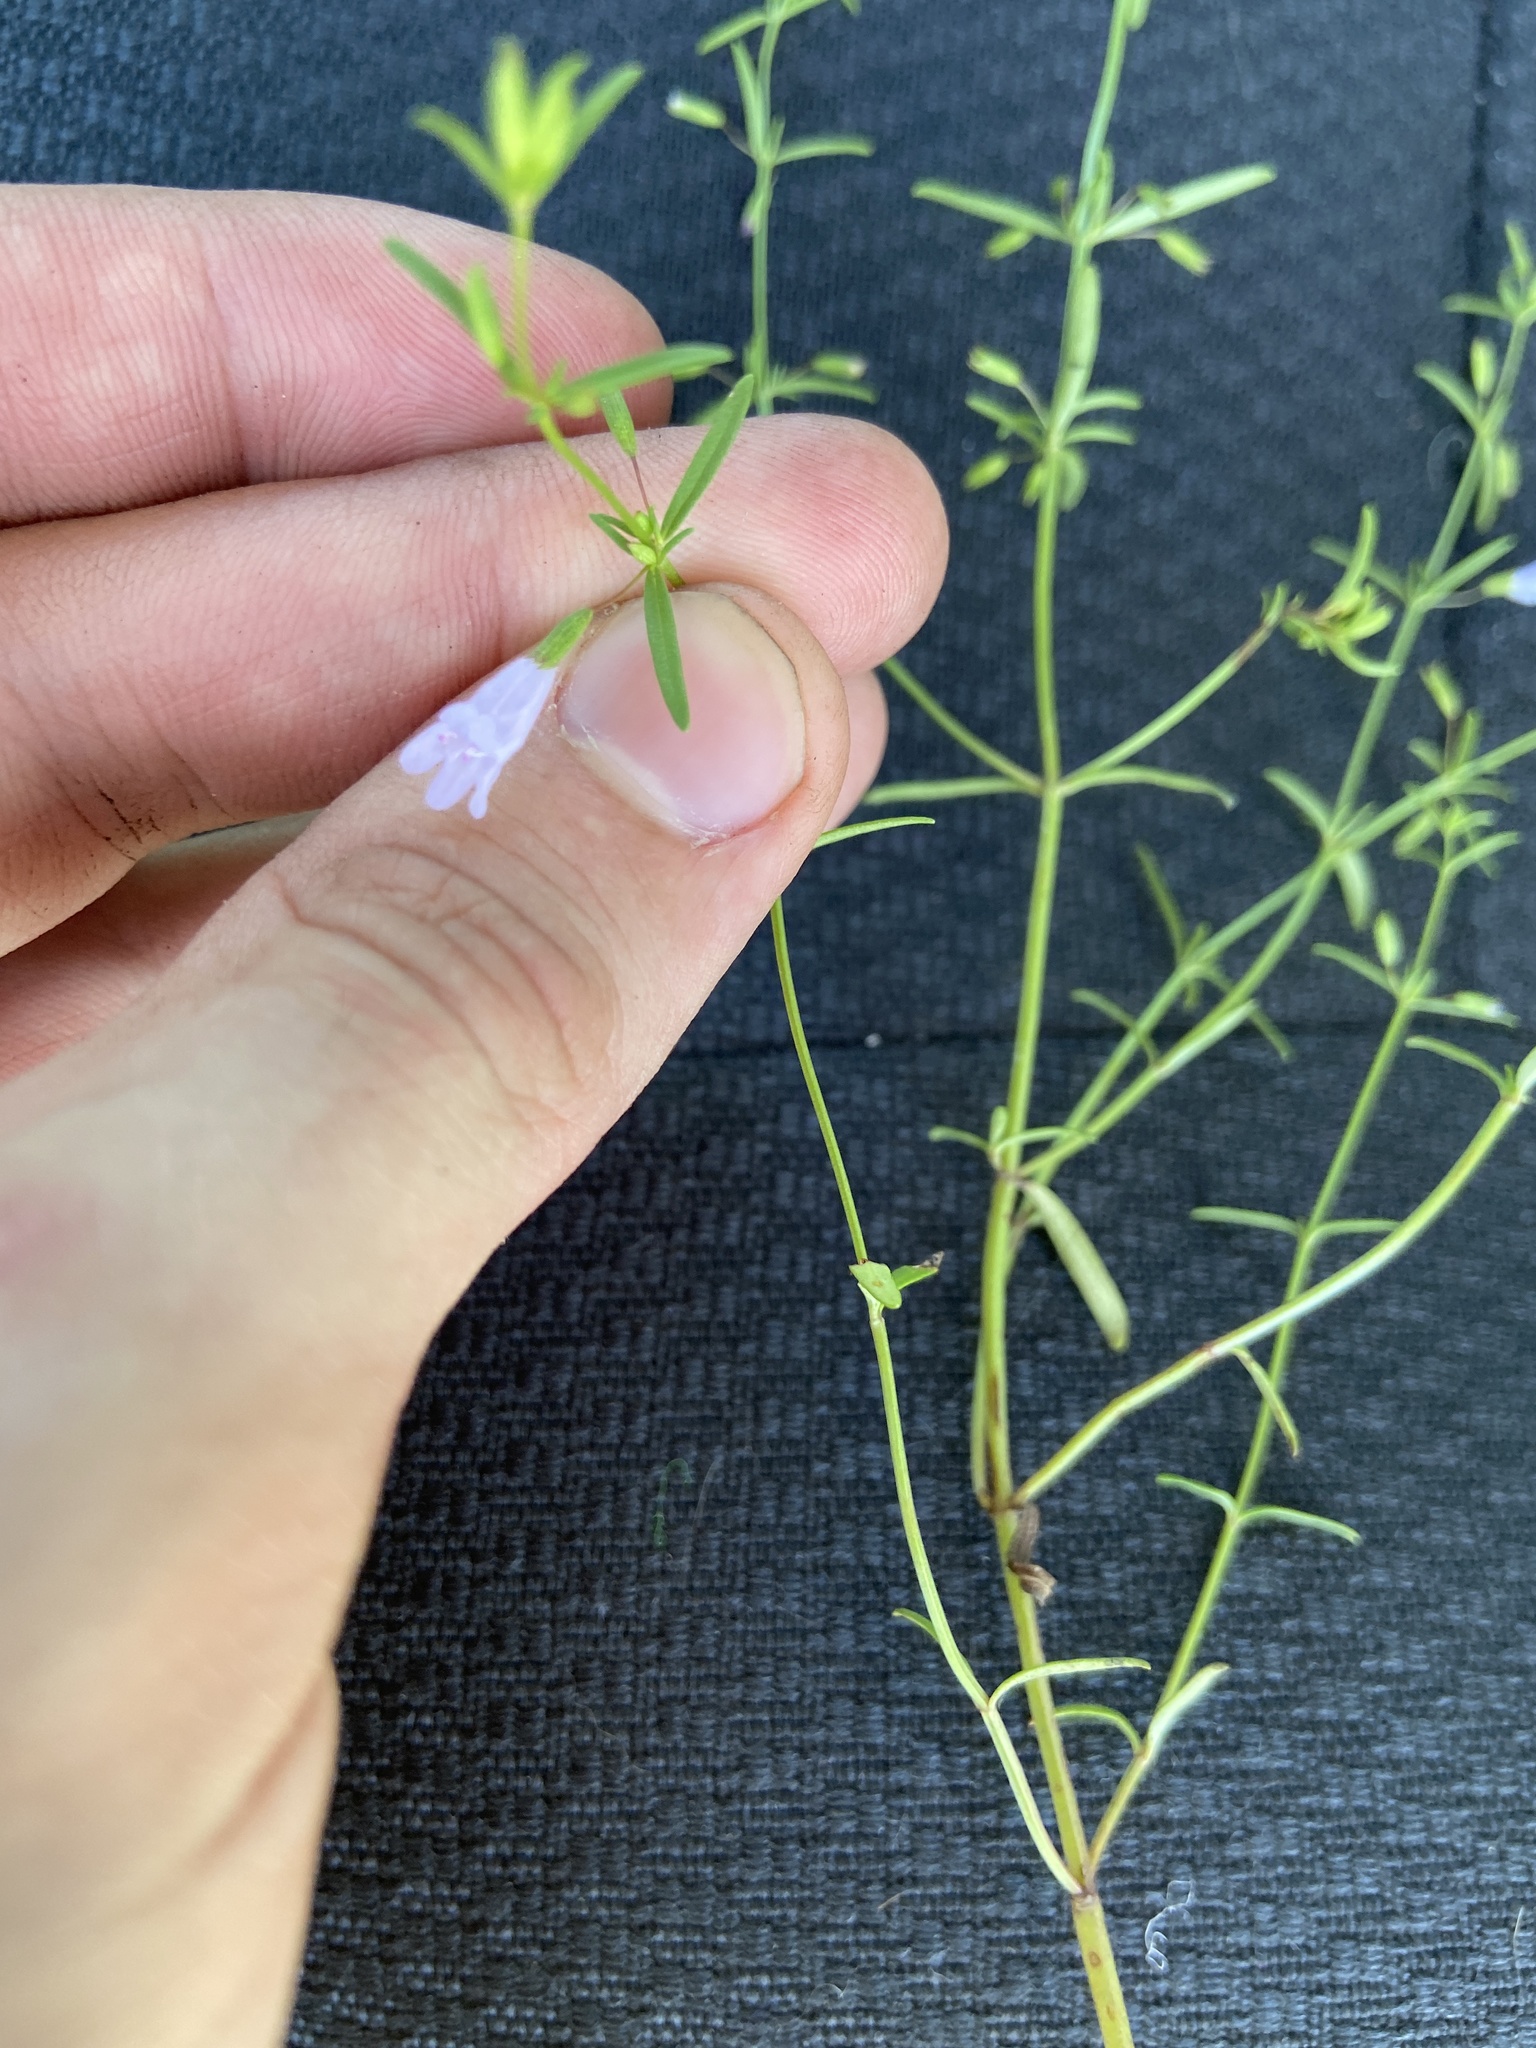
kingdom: Plantae
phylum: Tracheophyta
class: Magnoliopsida
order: Lamiales
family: Lamiaceae
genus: Clinopodium
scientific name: Clinopodium arkansanum
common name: Limestone calamint
